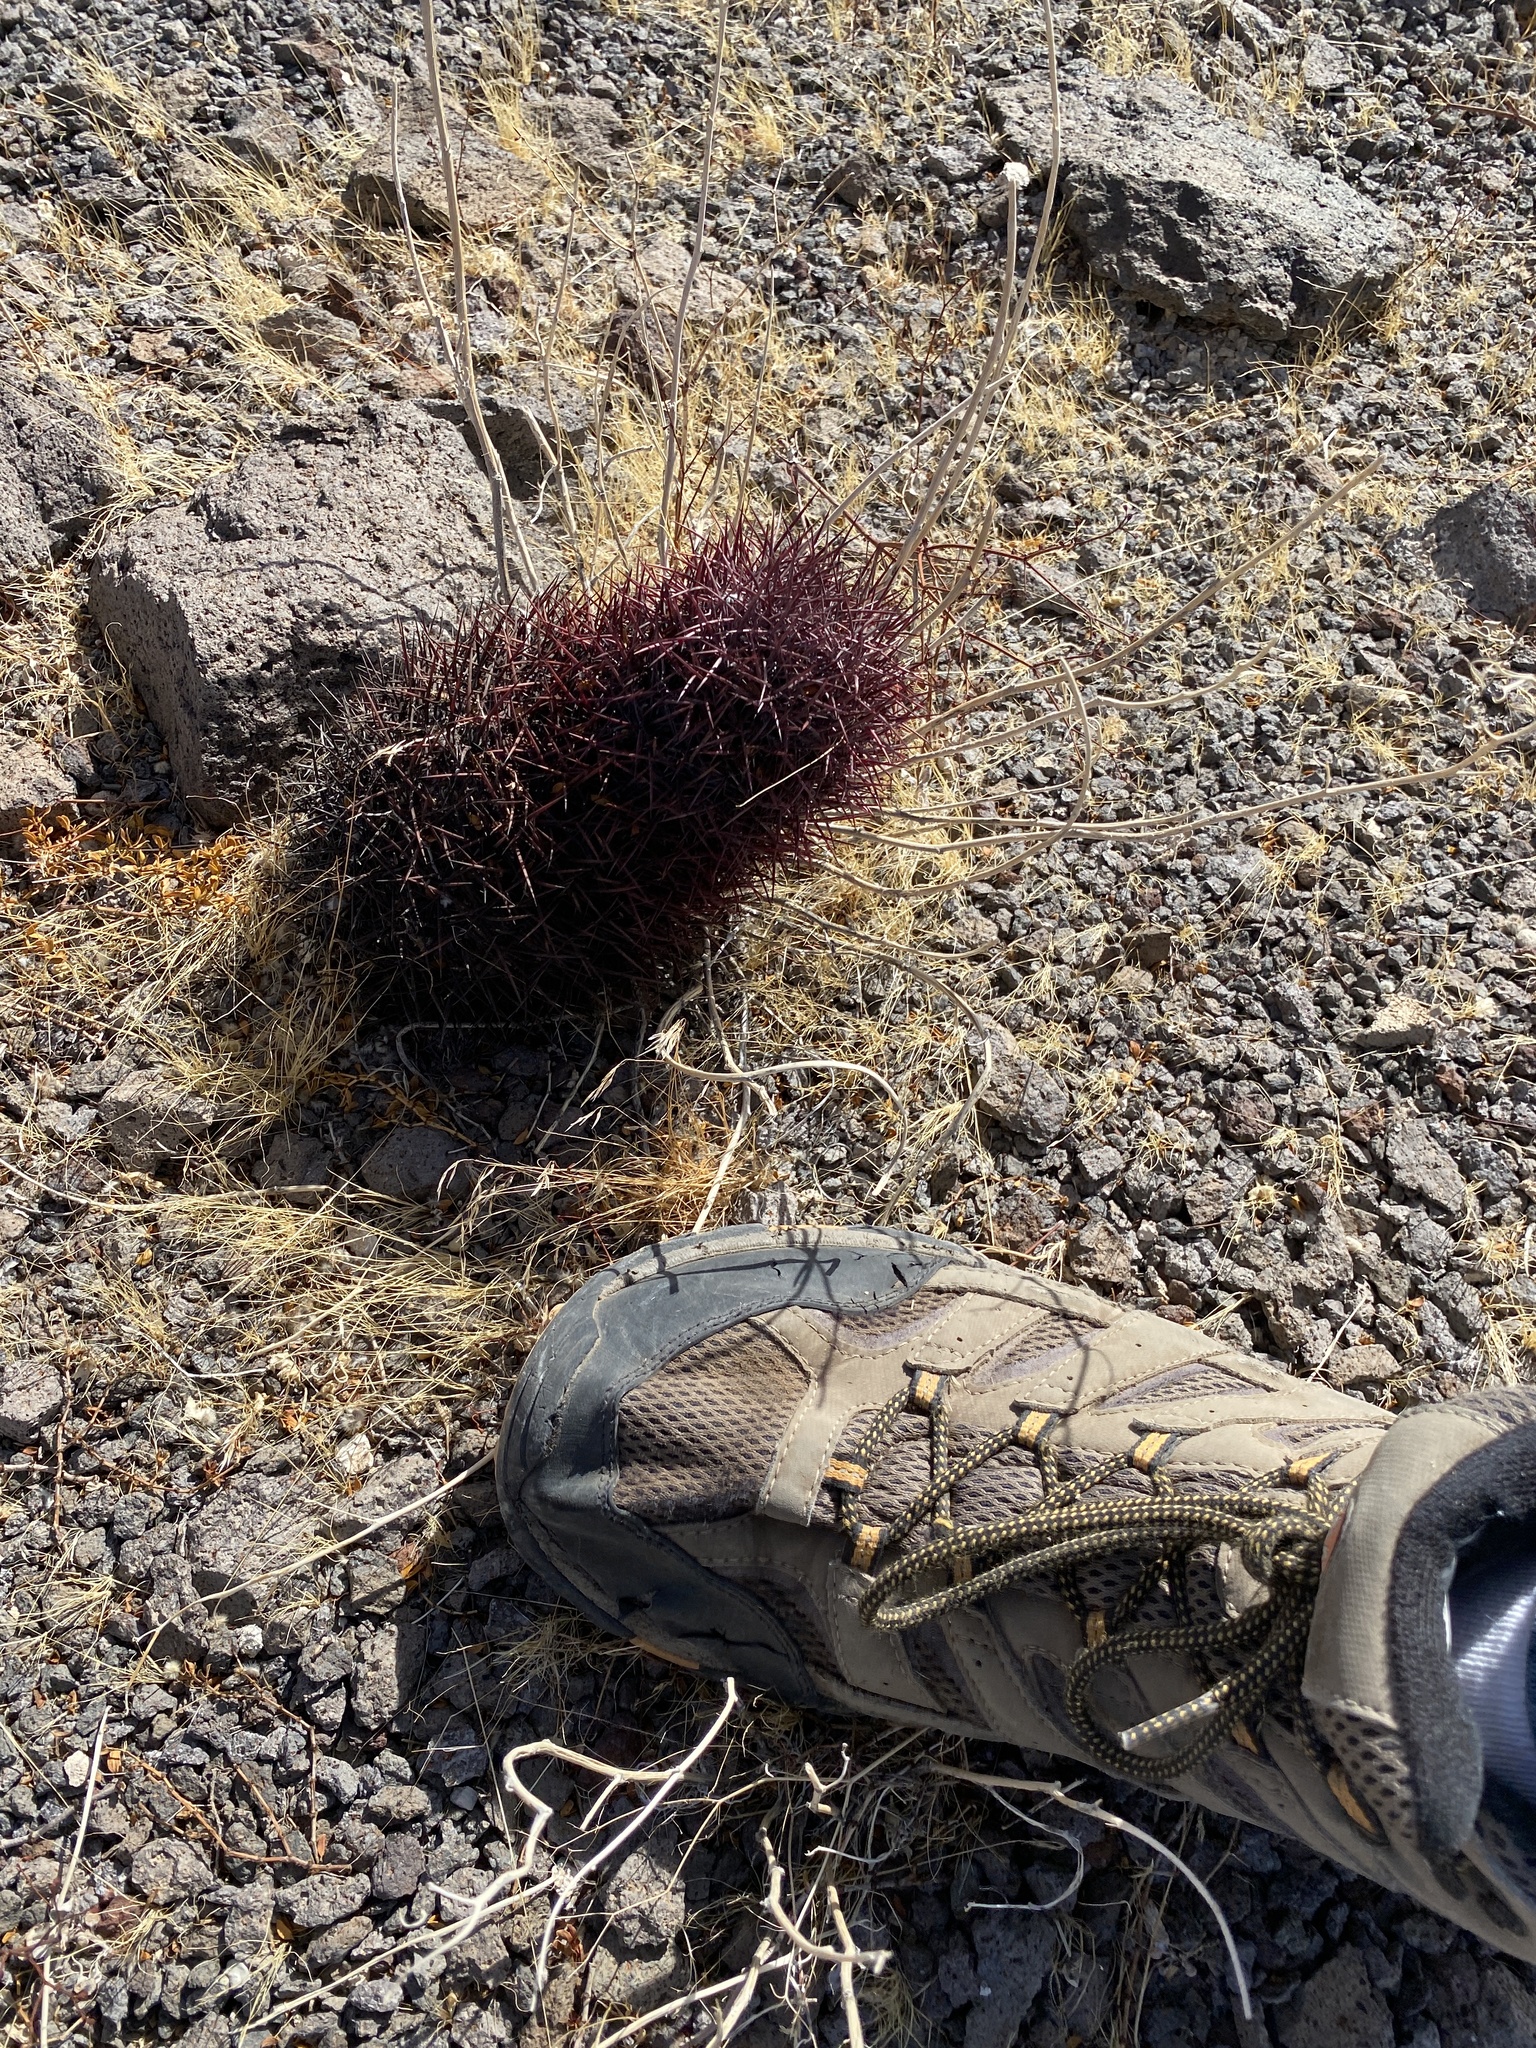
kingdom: Plantae
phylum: Tracheophyta
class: Magnoliopsida
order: Caryophyllales
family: Cactaceae
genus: Sclerocactus
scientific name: Sclerocactus johnsonii
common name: Eight-spine fishhook cactus
